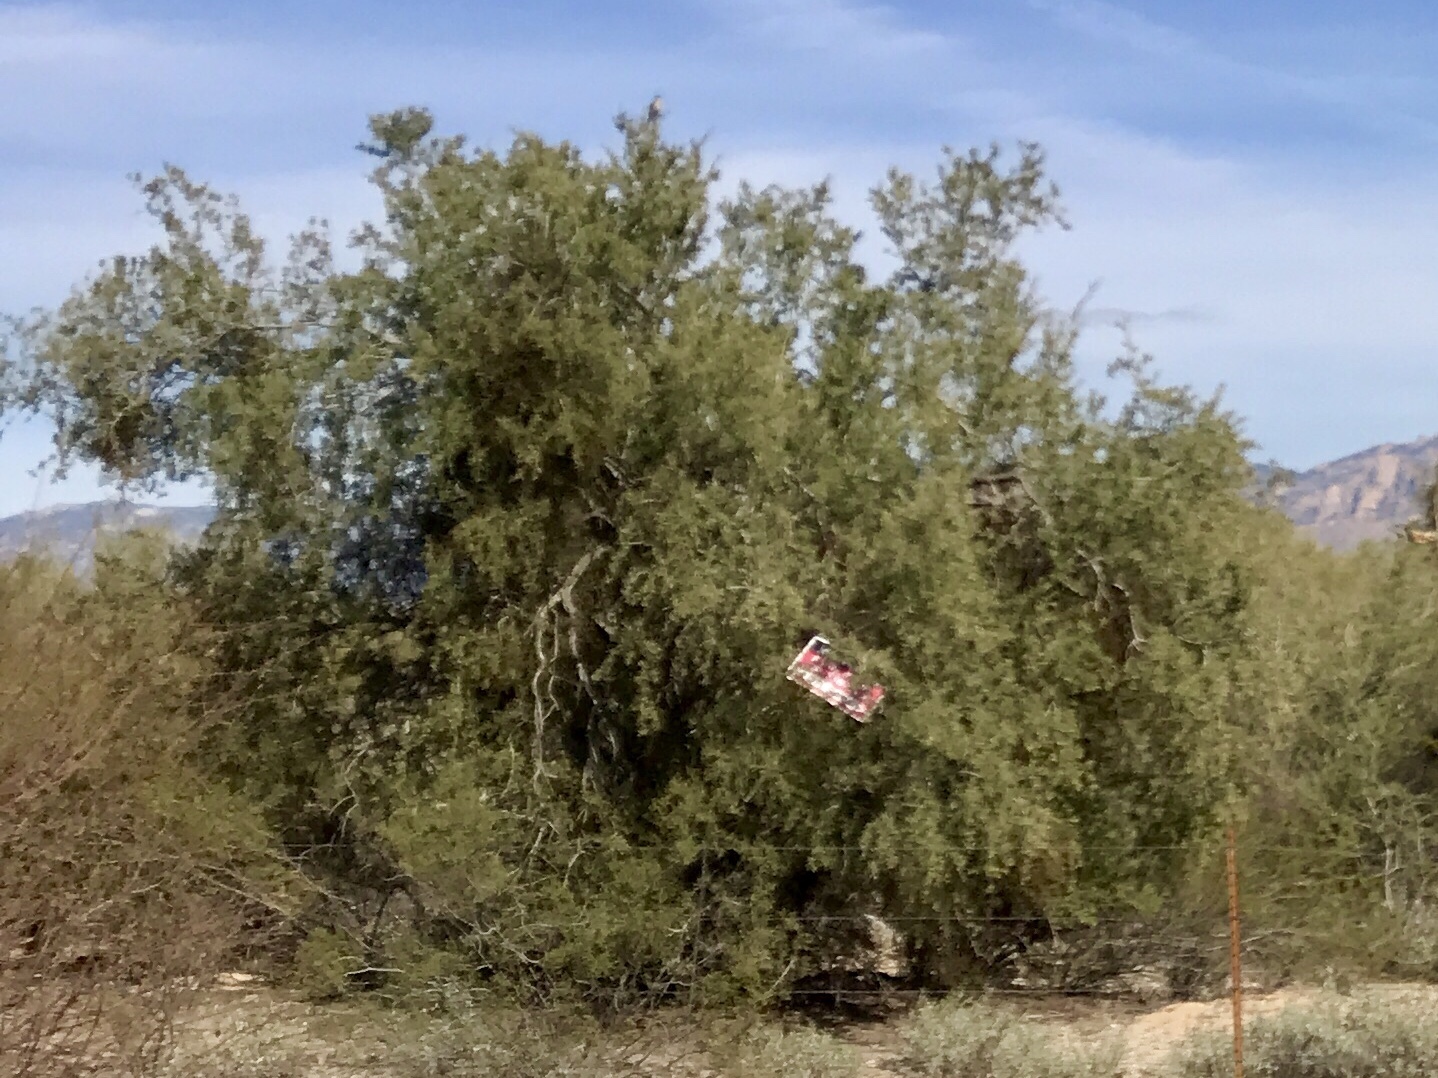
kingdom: Plantae
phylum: Tracheophyta
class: Magnoliopsida
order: Fabales
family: Fabaceae
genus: Olneya
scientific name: Olneya tesota
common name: Desert ironwood
